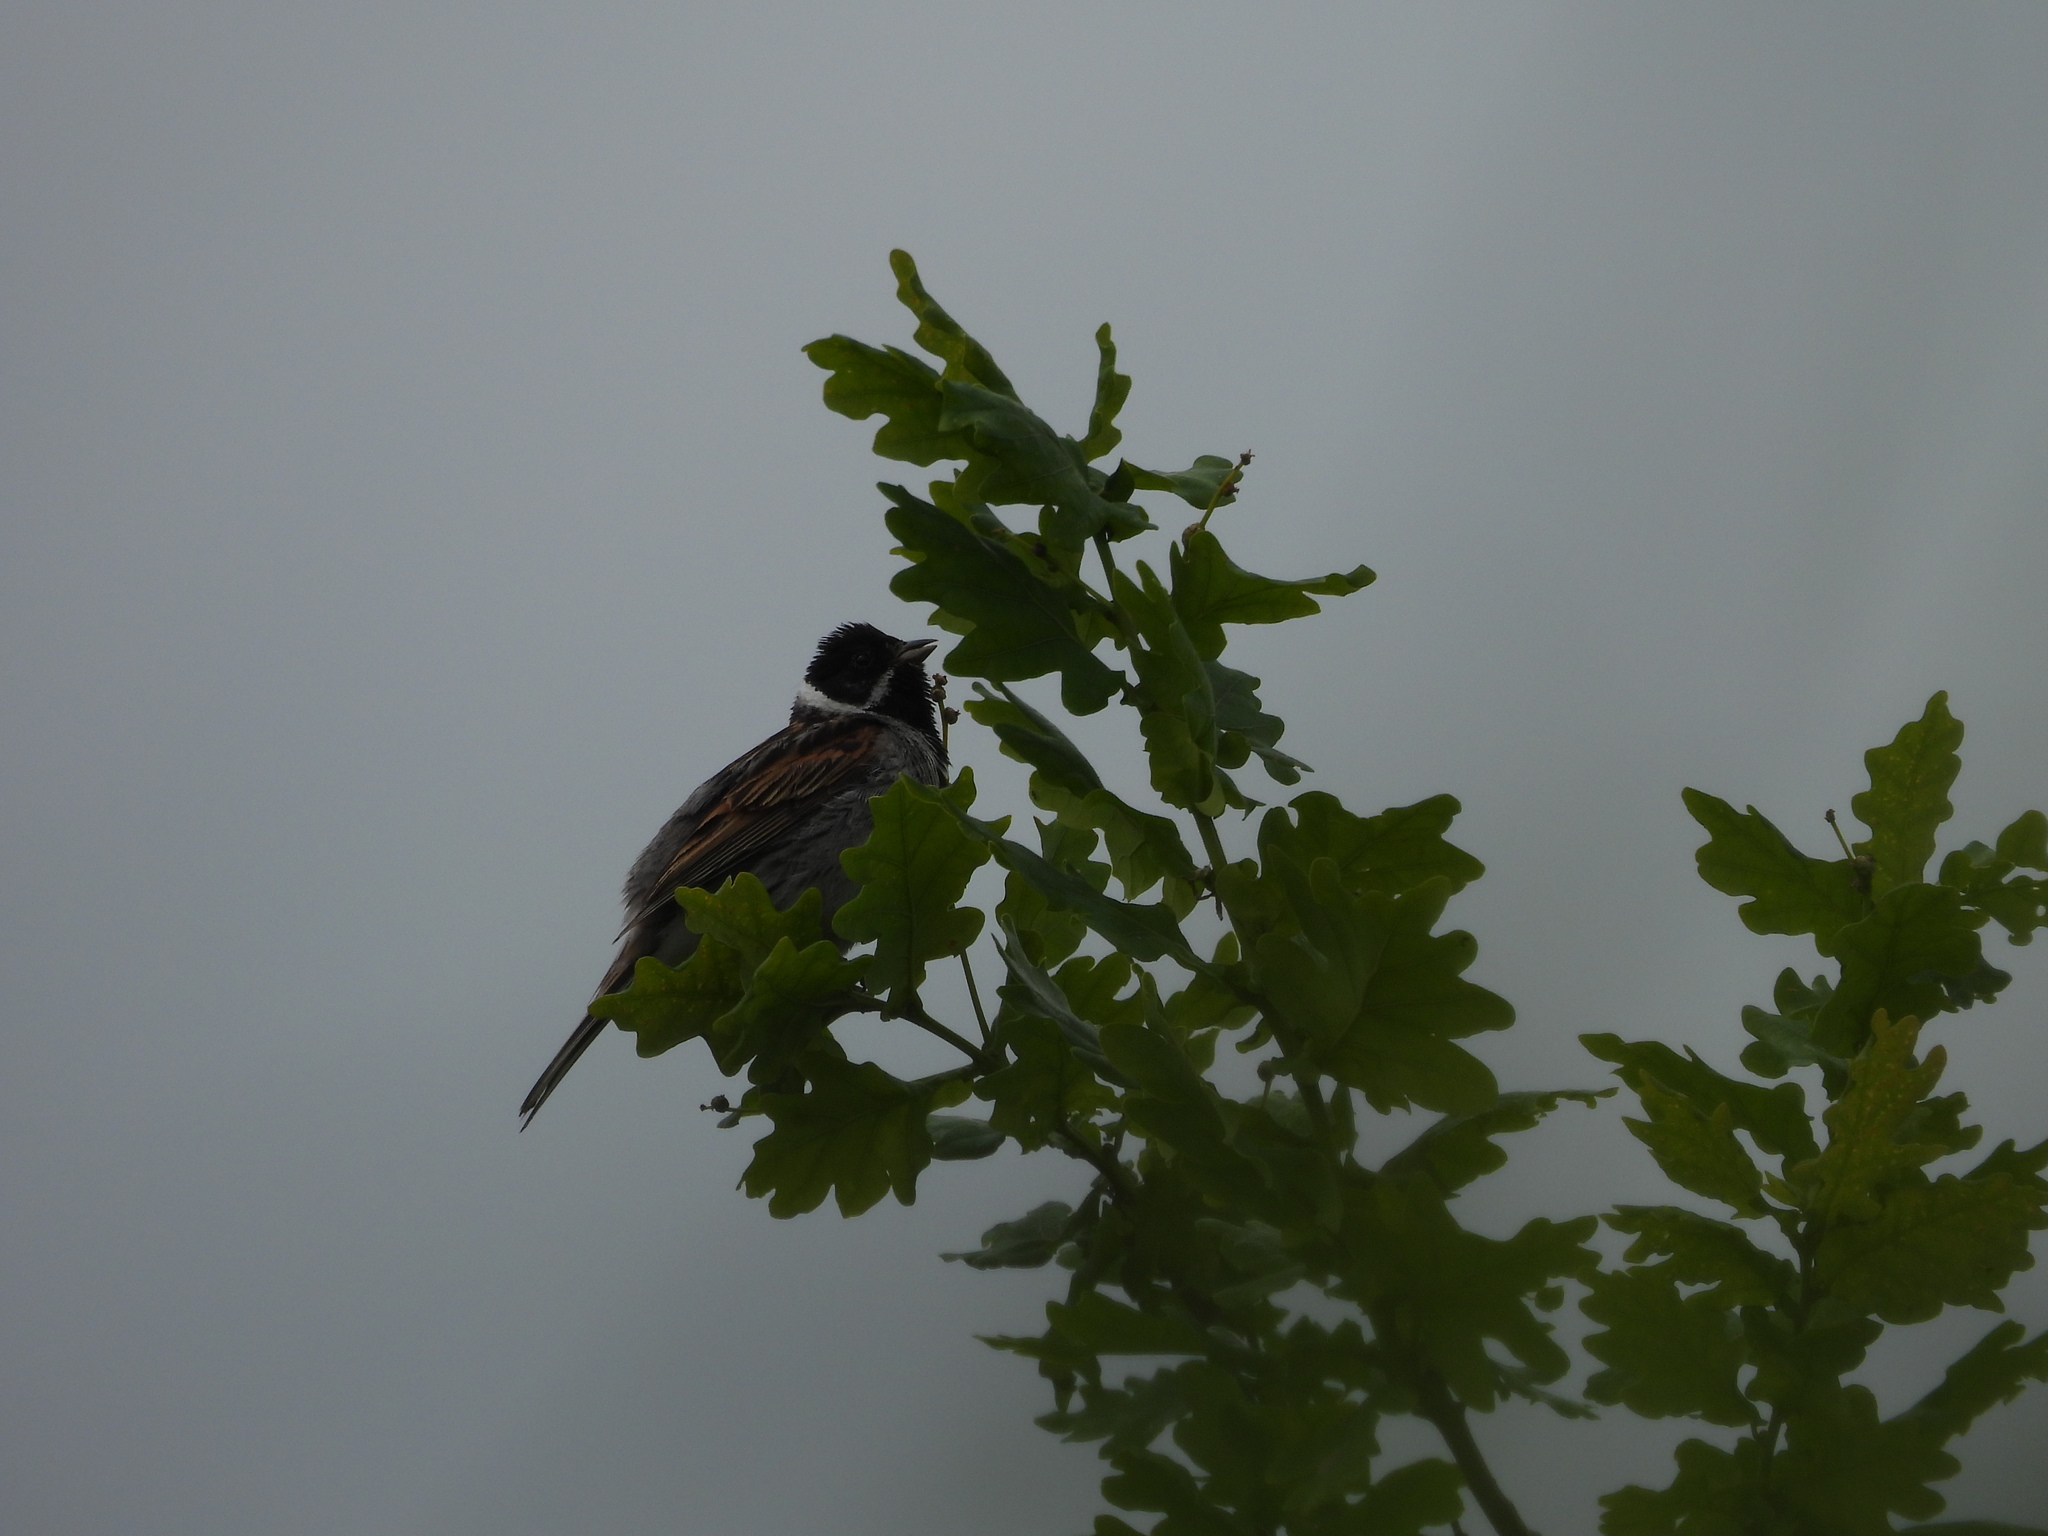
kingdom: Animalia
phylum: Chordata
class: Aves
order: Passeriformes
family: Emberizidae
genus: Emberiza
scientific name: Emberiza schoeniclus
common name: Reed bunting
